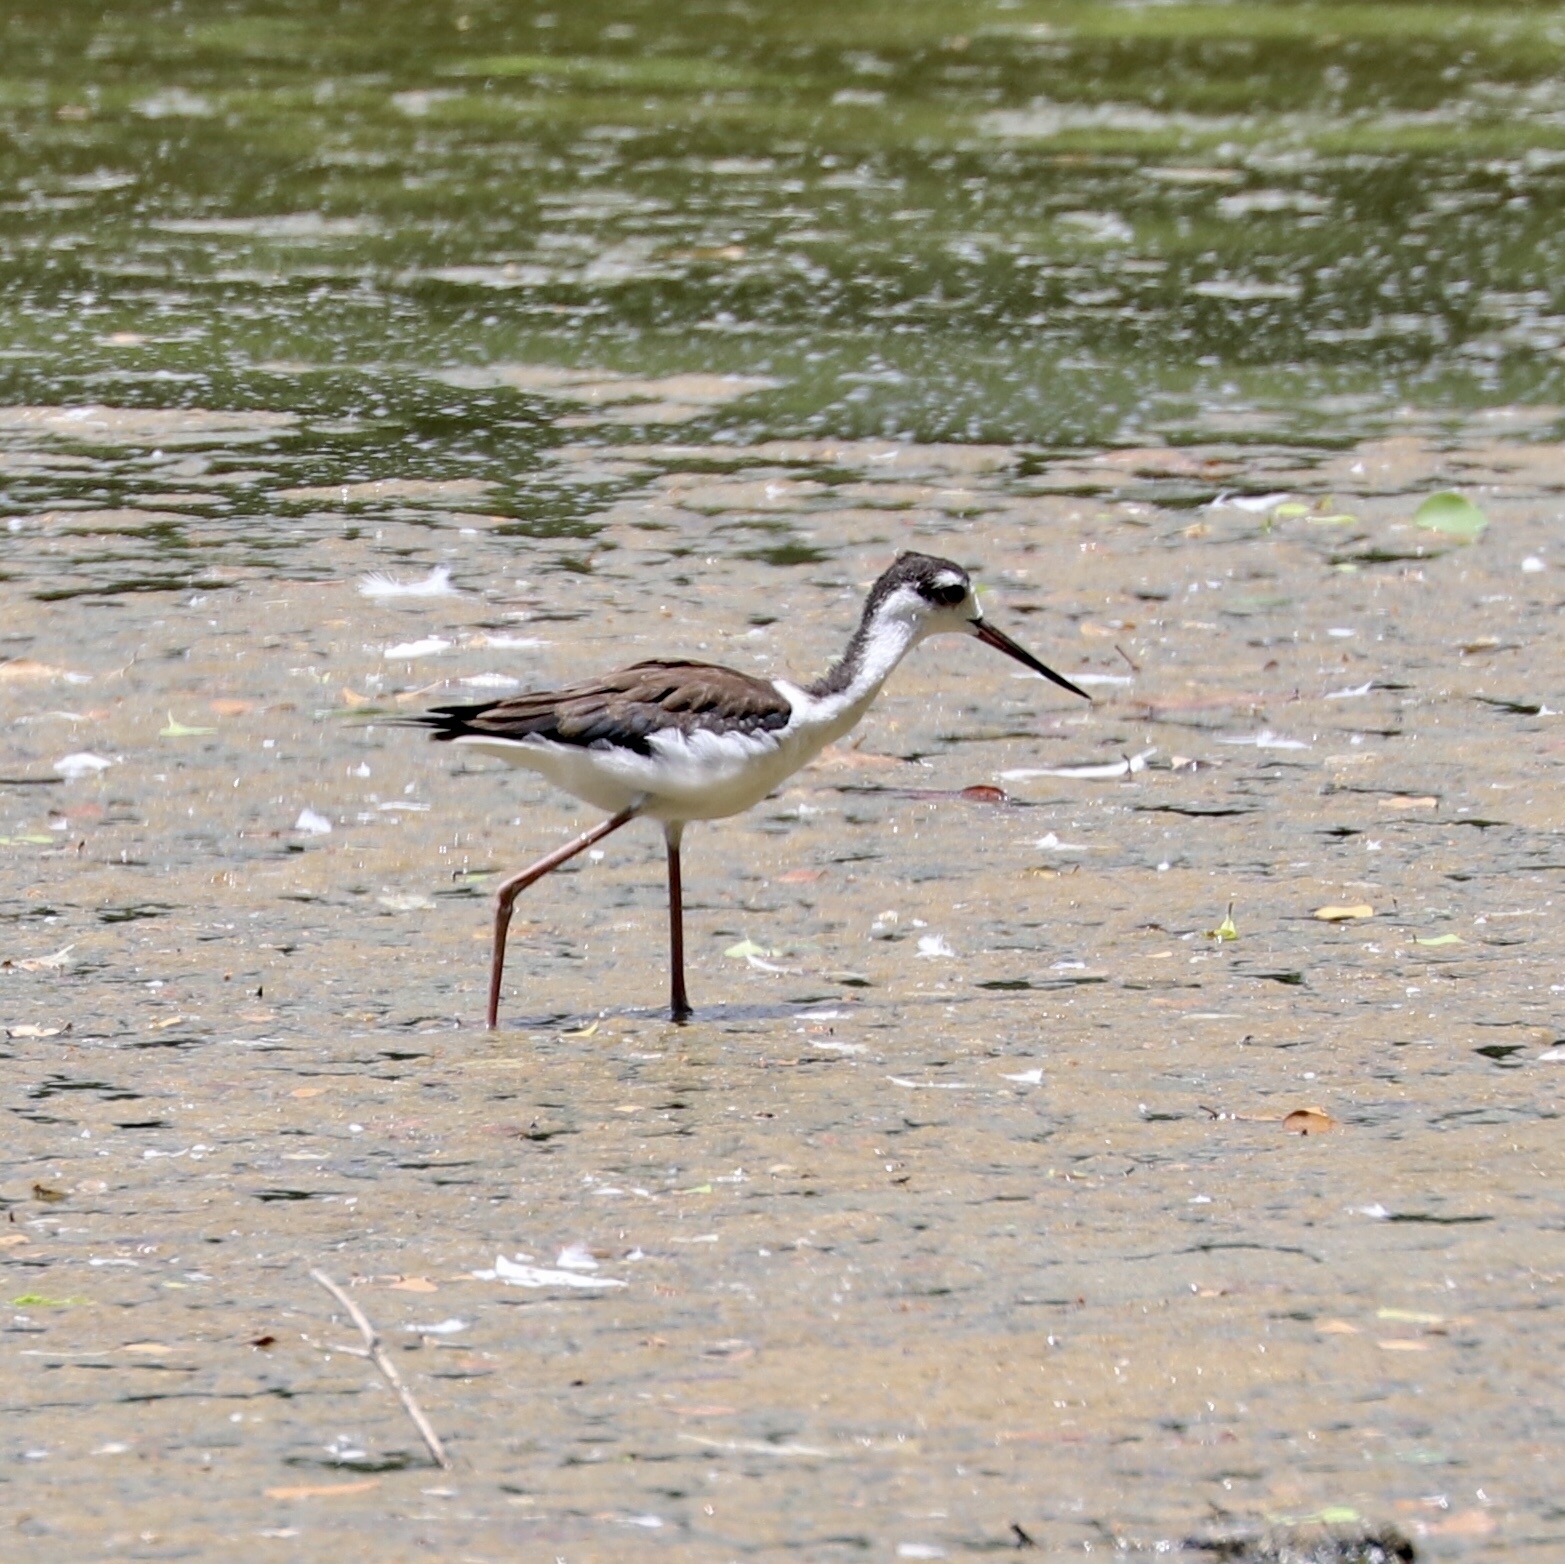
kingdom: Animalia
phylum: Chordata
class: Aves
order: Charadriiformes
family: Recurvirostridae
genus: Himantopus
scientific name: Himantopus mexicanus
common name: Black-necked stilt
